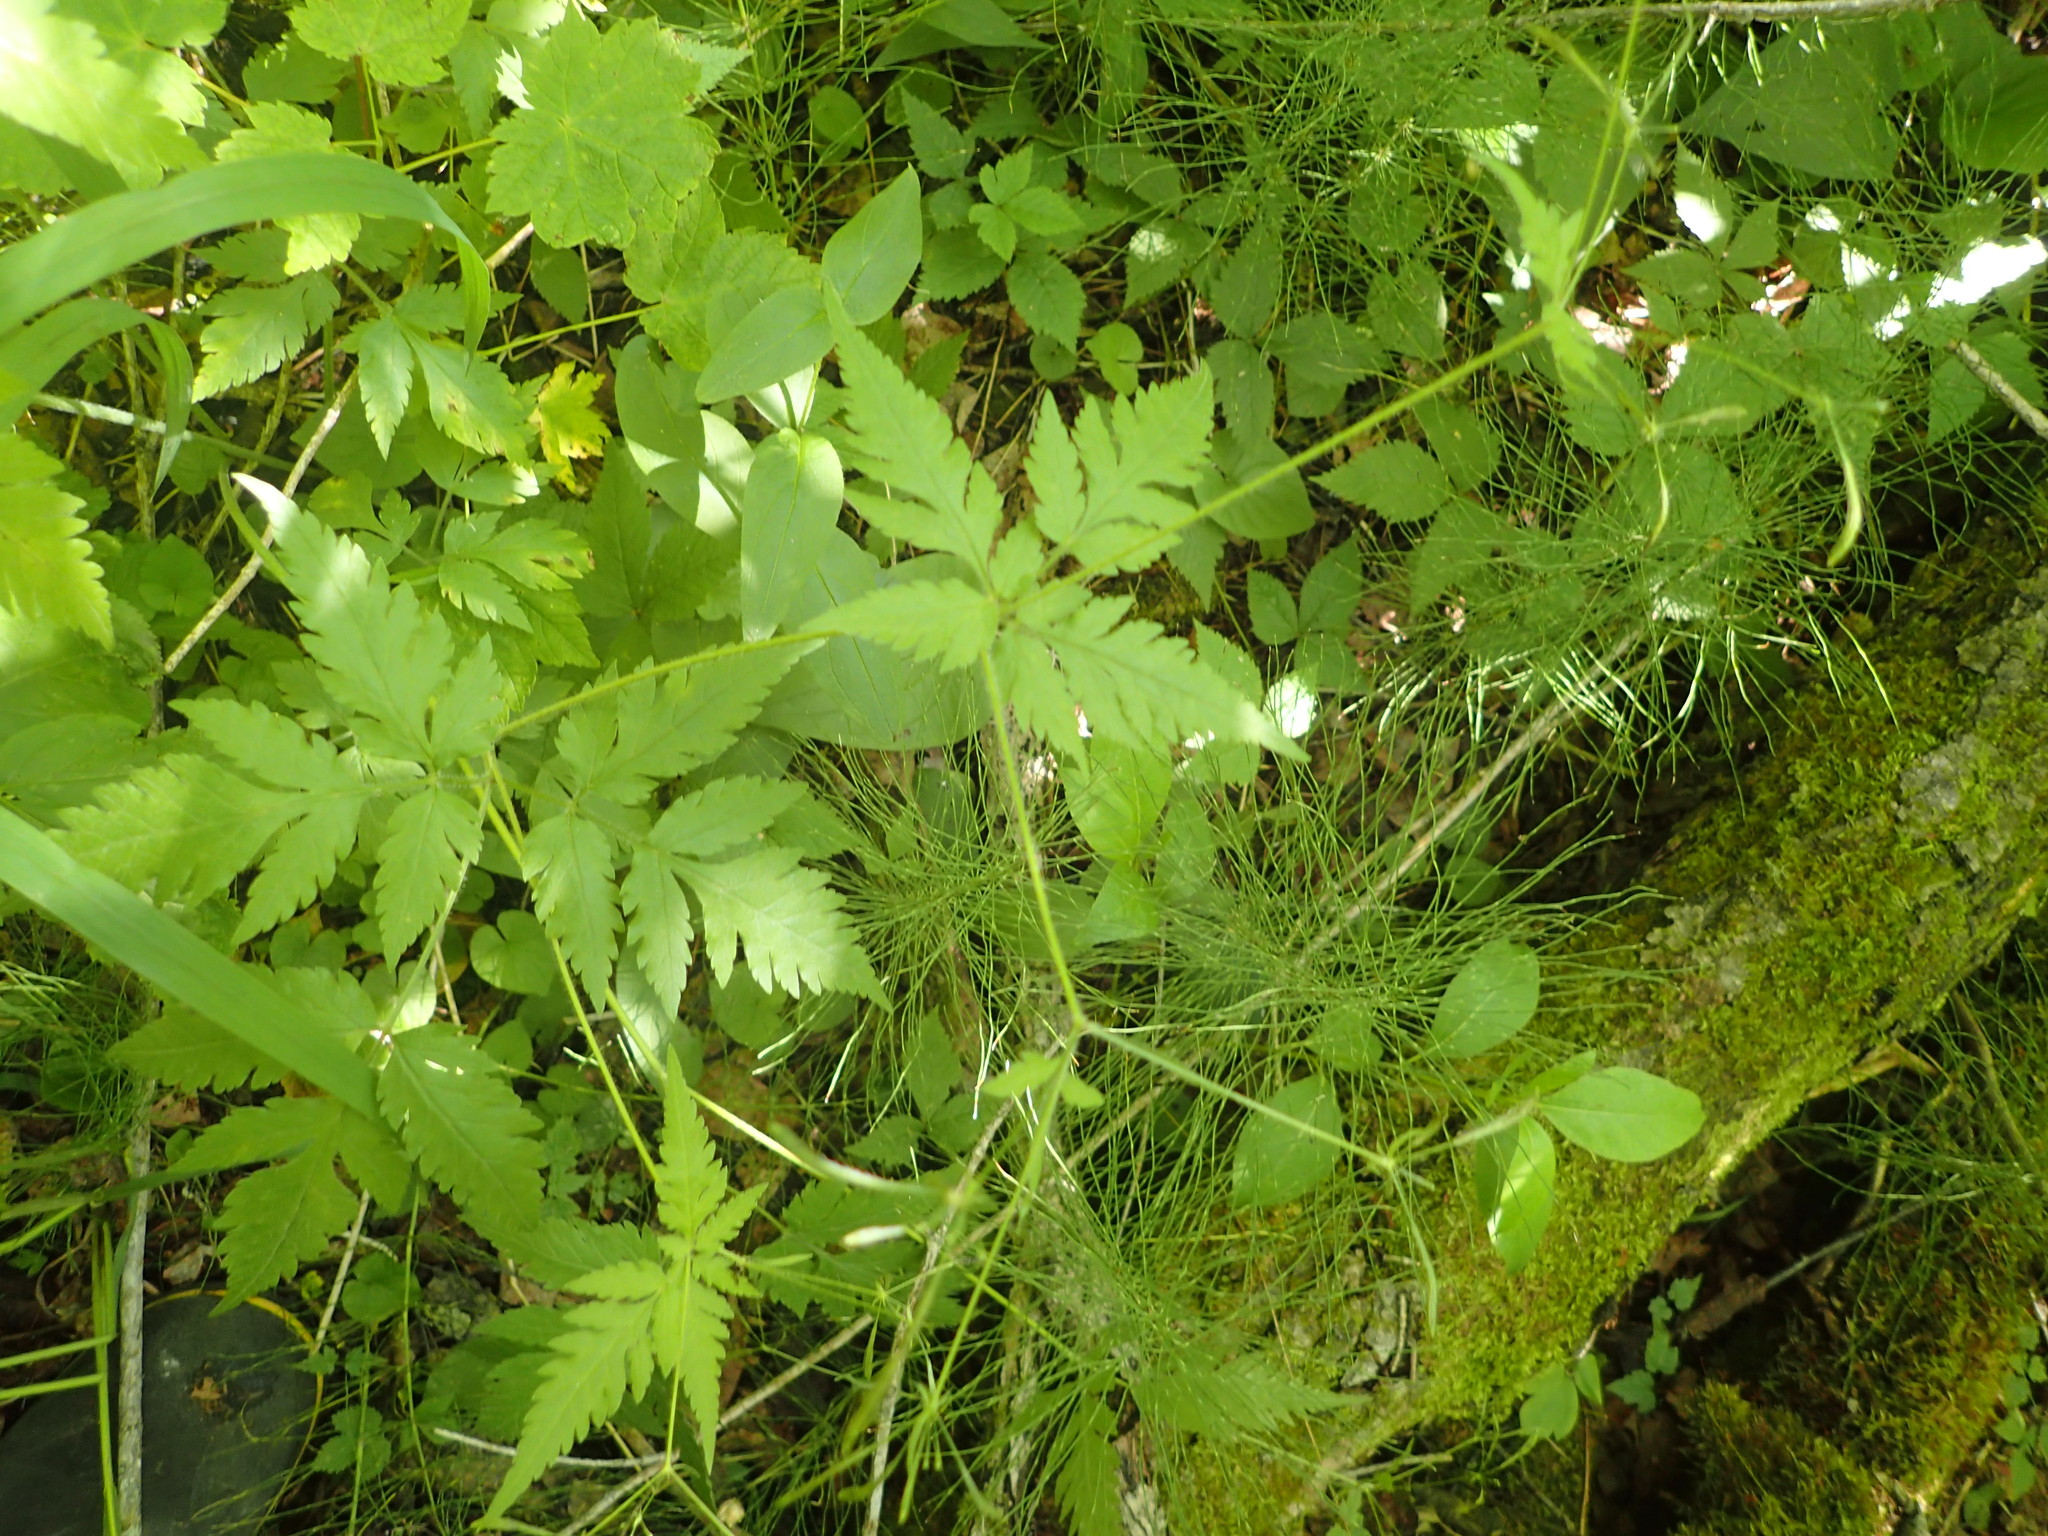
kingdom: Plantae
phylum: Tracheophyta
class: Magnoliopsida
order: Apiales
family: Apiaceae
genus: Osmorhiza
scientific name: Osmorhiza claytonii
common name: Hairy sweet cicely
